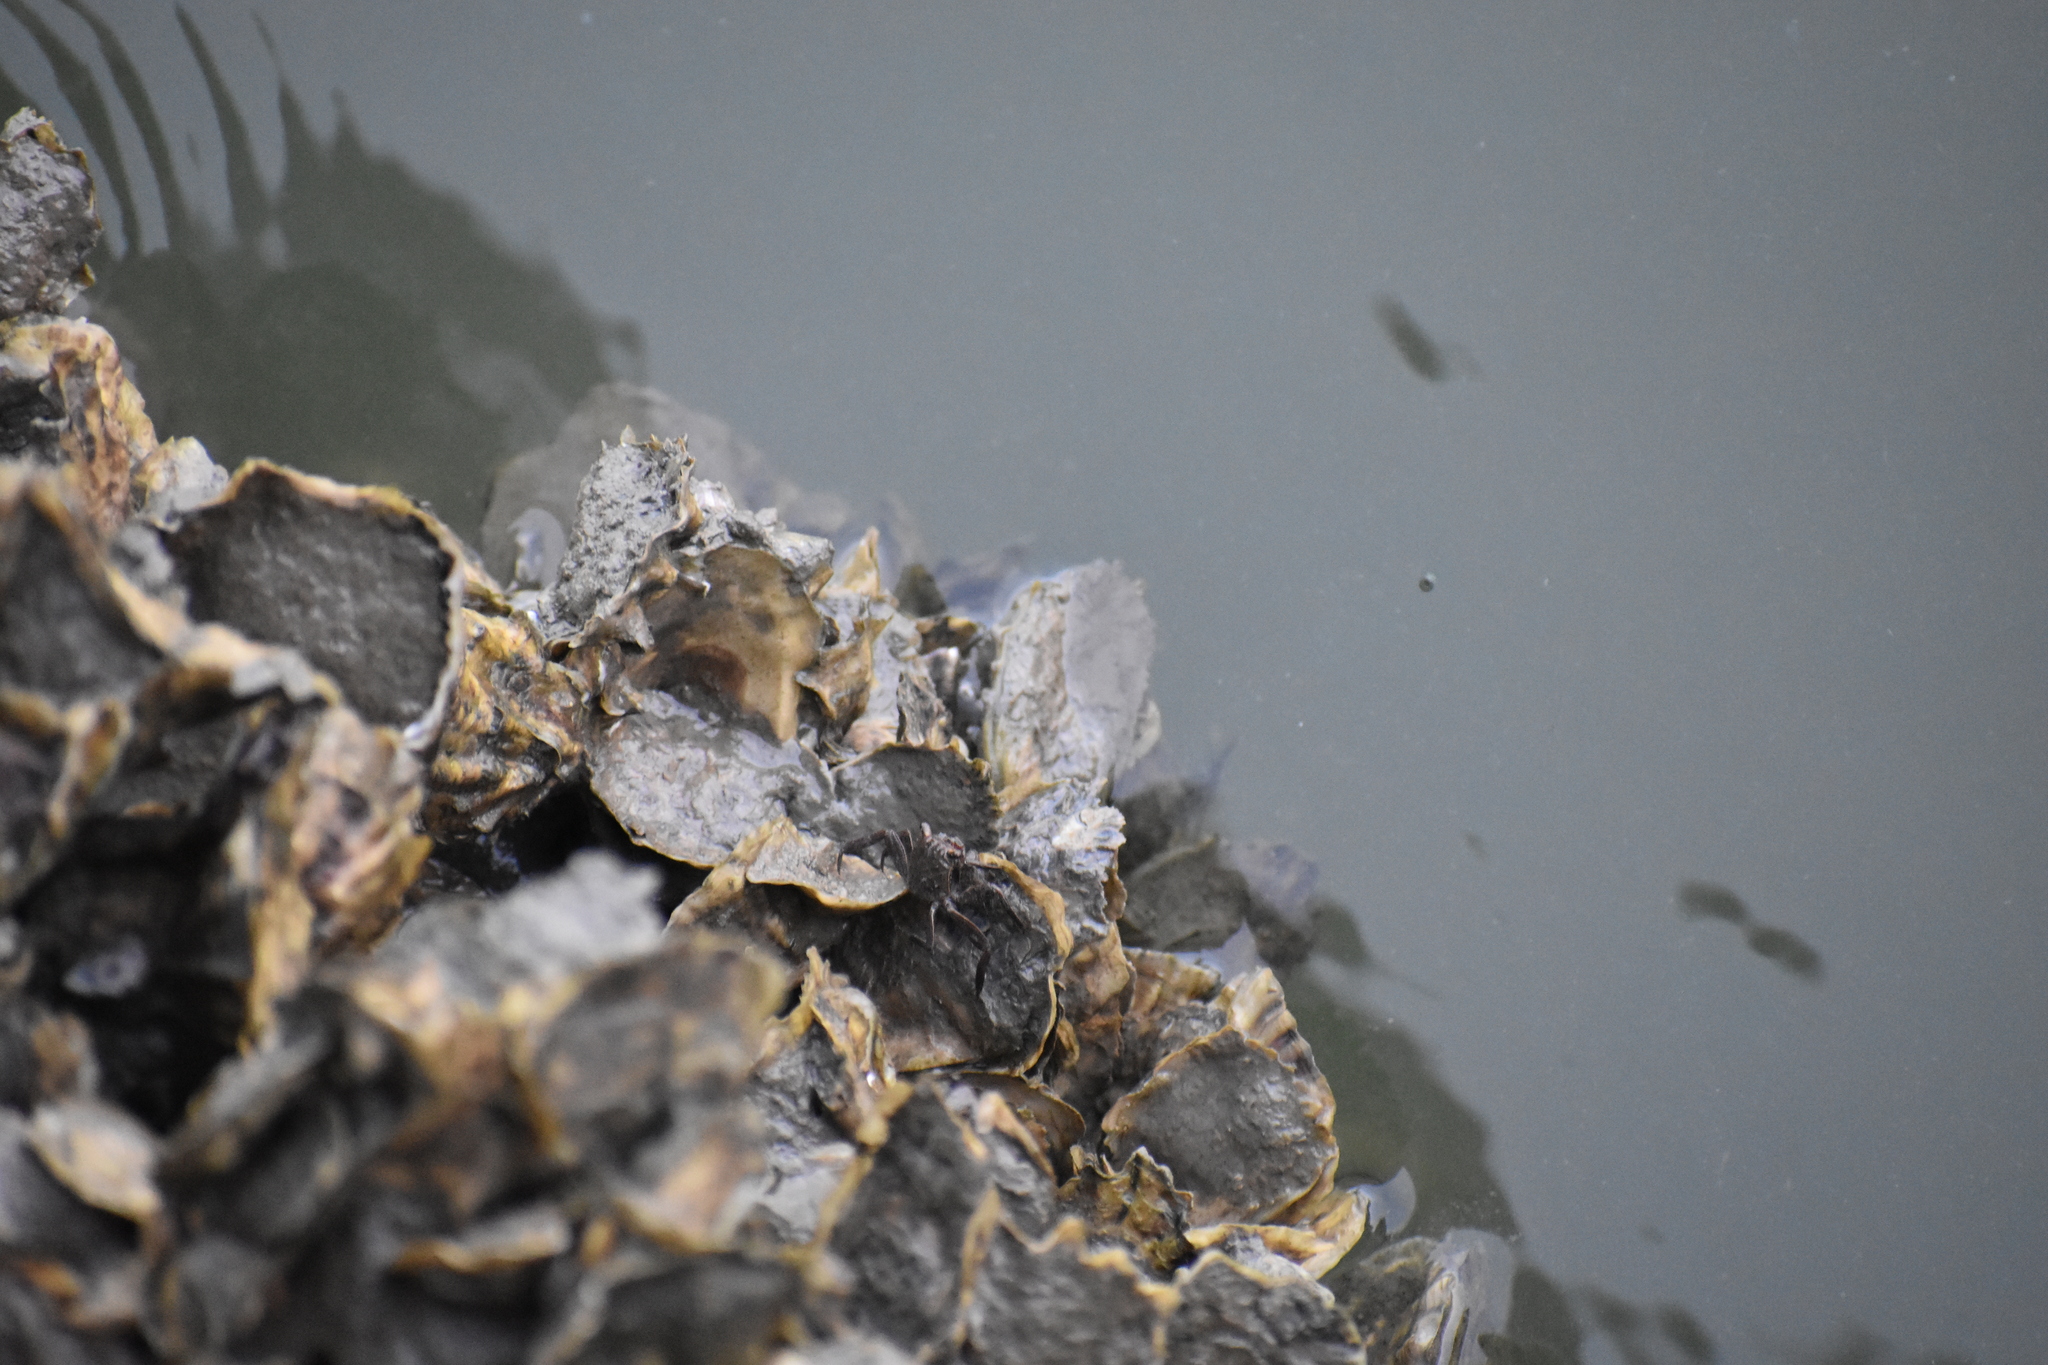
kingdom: Animalia
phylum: Mollusca
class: Bivalvia
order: Ostreida
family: Ostreidae
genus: Crassostrea
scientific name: Crassostrea virginica
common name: American oyster
